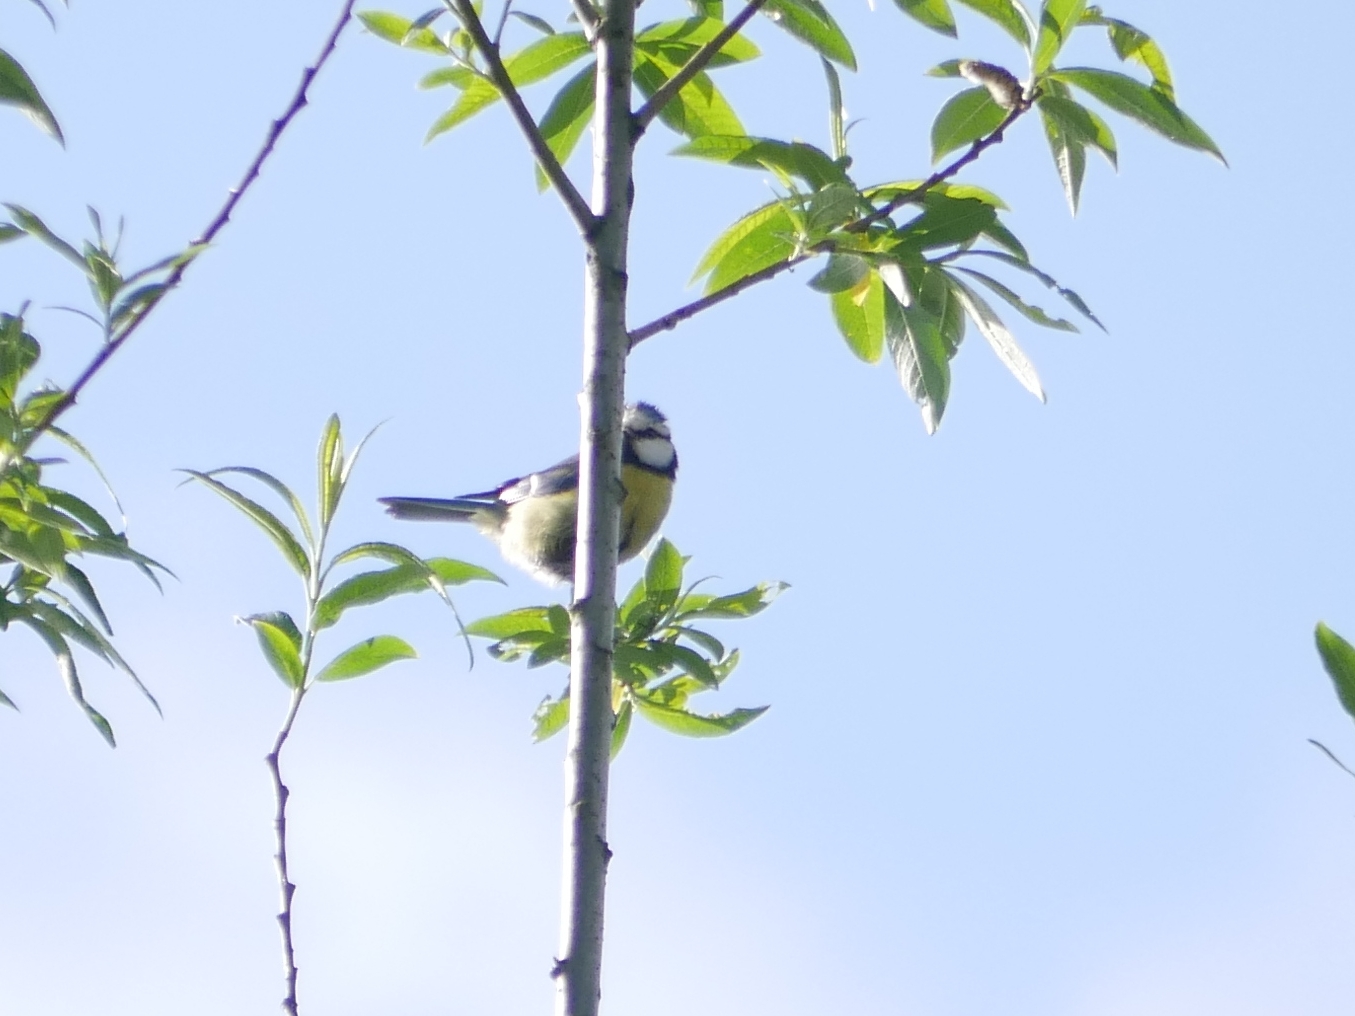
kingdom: Animalia
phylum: Chordata
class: Aves
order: Passeriformes
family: Paridae
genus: Cyanistes
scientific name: Cyanistes caeruleus
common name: Eurasian blue tit
